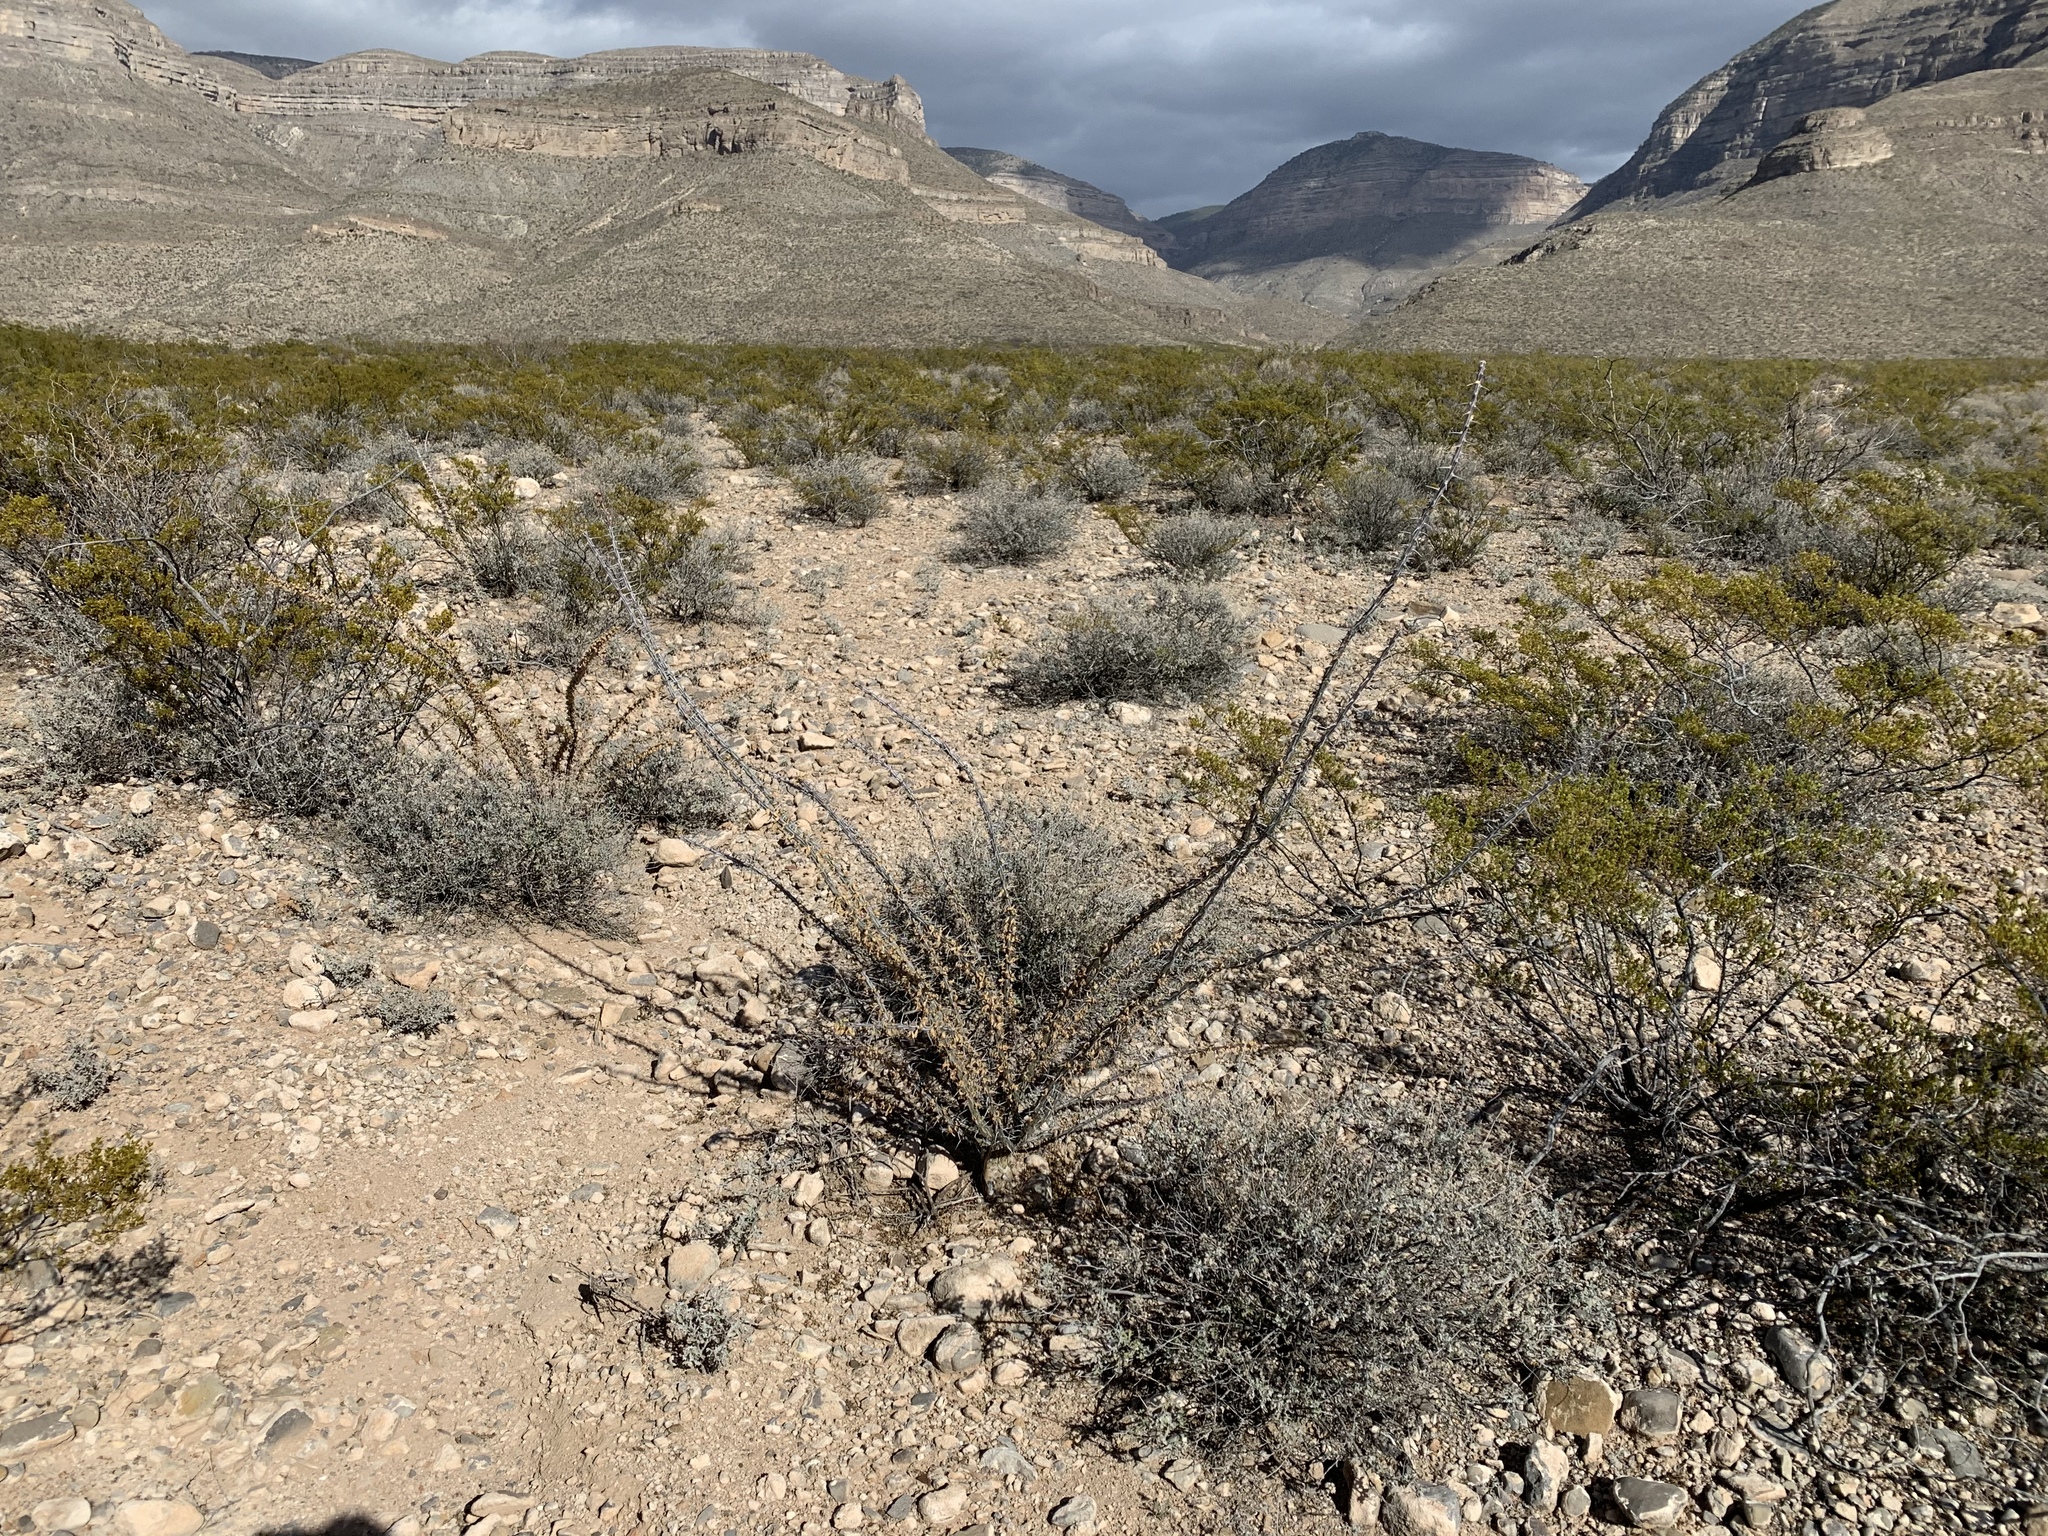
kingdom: Plantae
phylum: Tracheophyta
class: Magnoliopsida
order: Ericales
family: Fouquieriaceae
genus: Fouquieria
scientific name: Fouquieria splendens
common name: Vine-cactus
